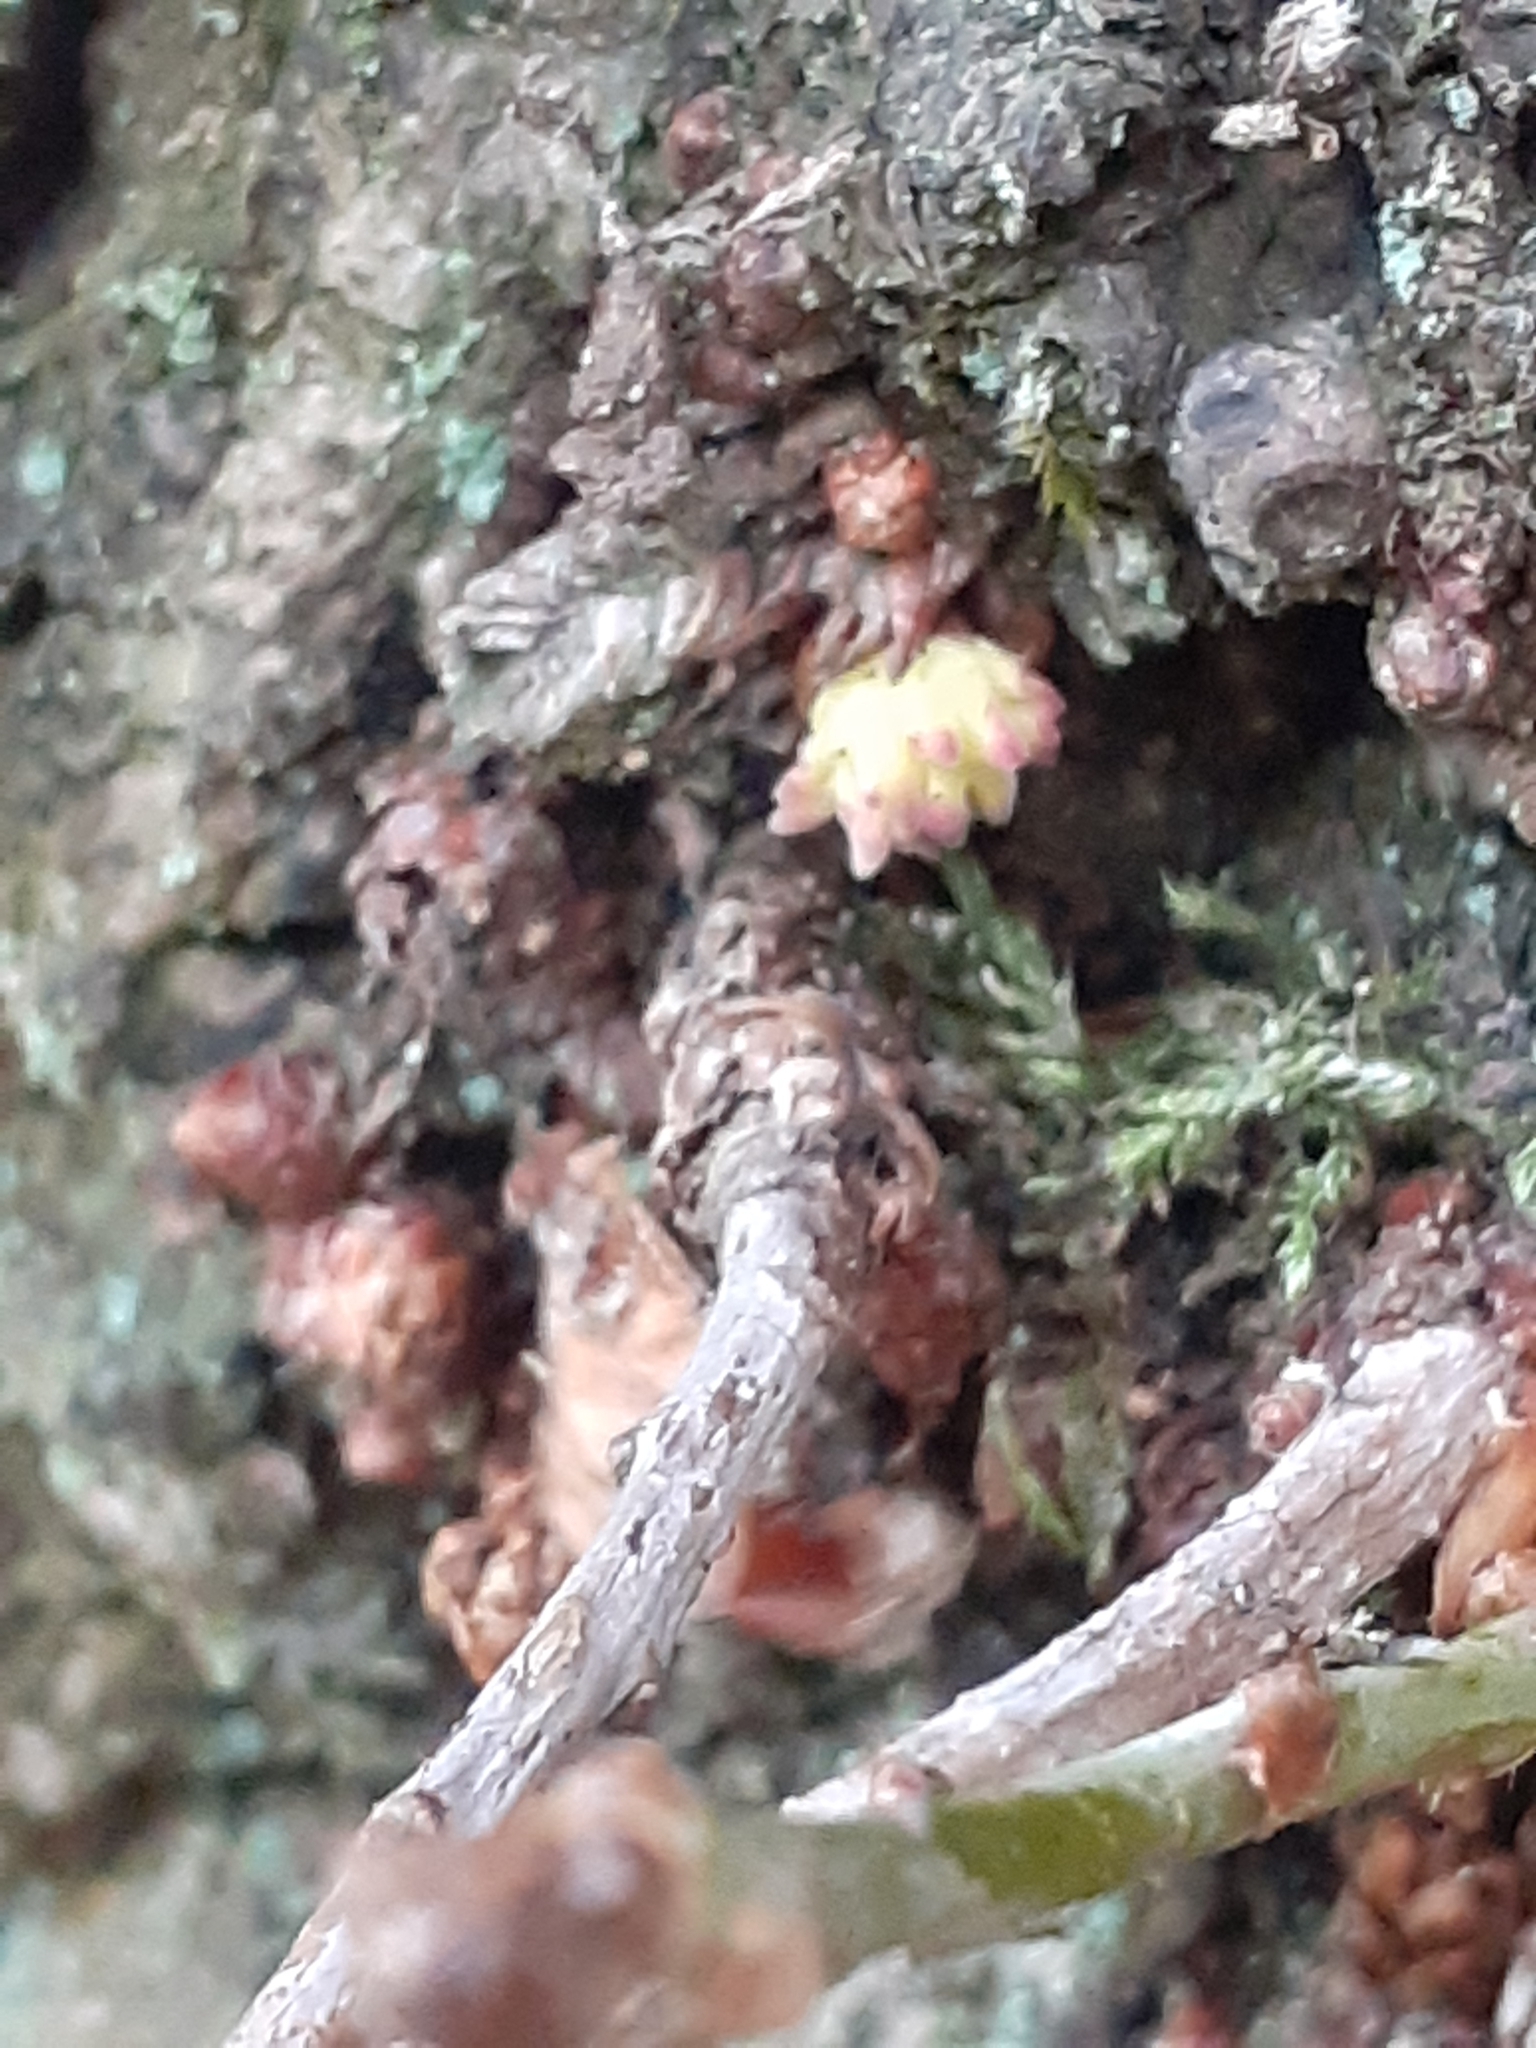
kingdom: Animalia
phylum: Arthropoda
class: Insecta
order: Hymenoptera
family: Cynipidae
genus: Andricus
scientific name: Andricus gemmeus
